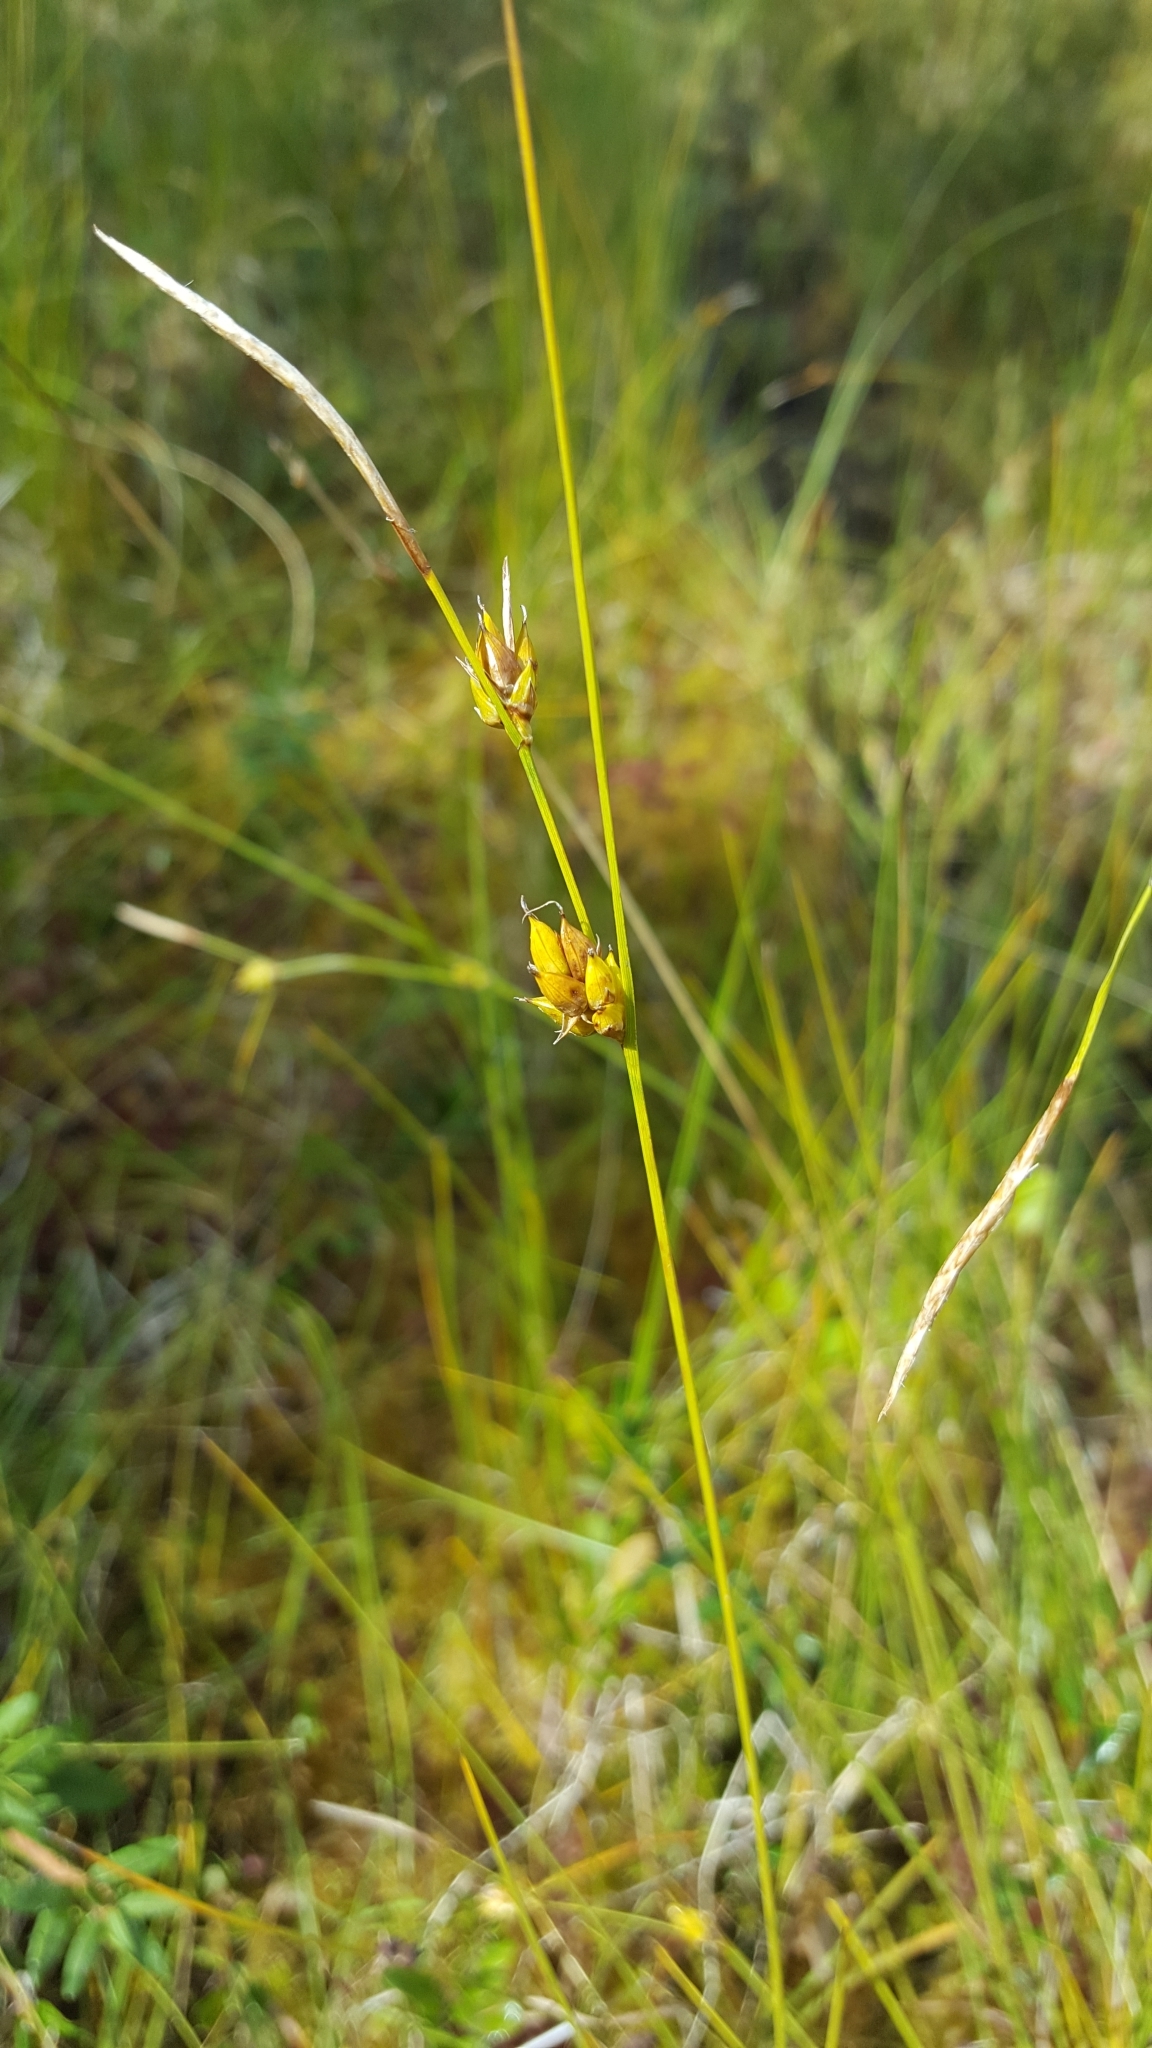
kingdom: Plantae
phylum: Tracheophyta
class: Liliopsida
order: Poales
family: Cyperaceae
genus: Carex
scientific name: Carex oligosperma
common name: Few-seed sedge
